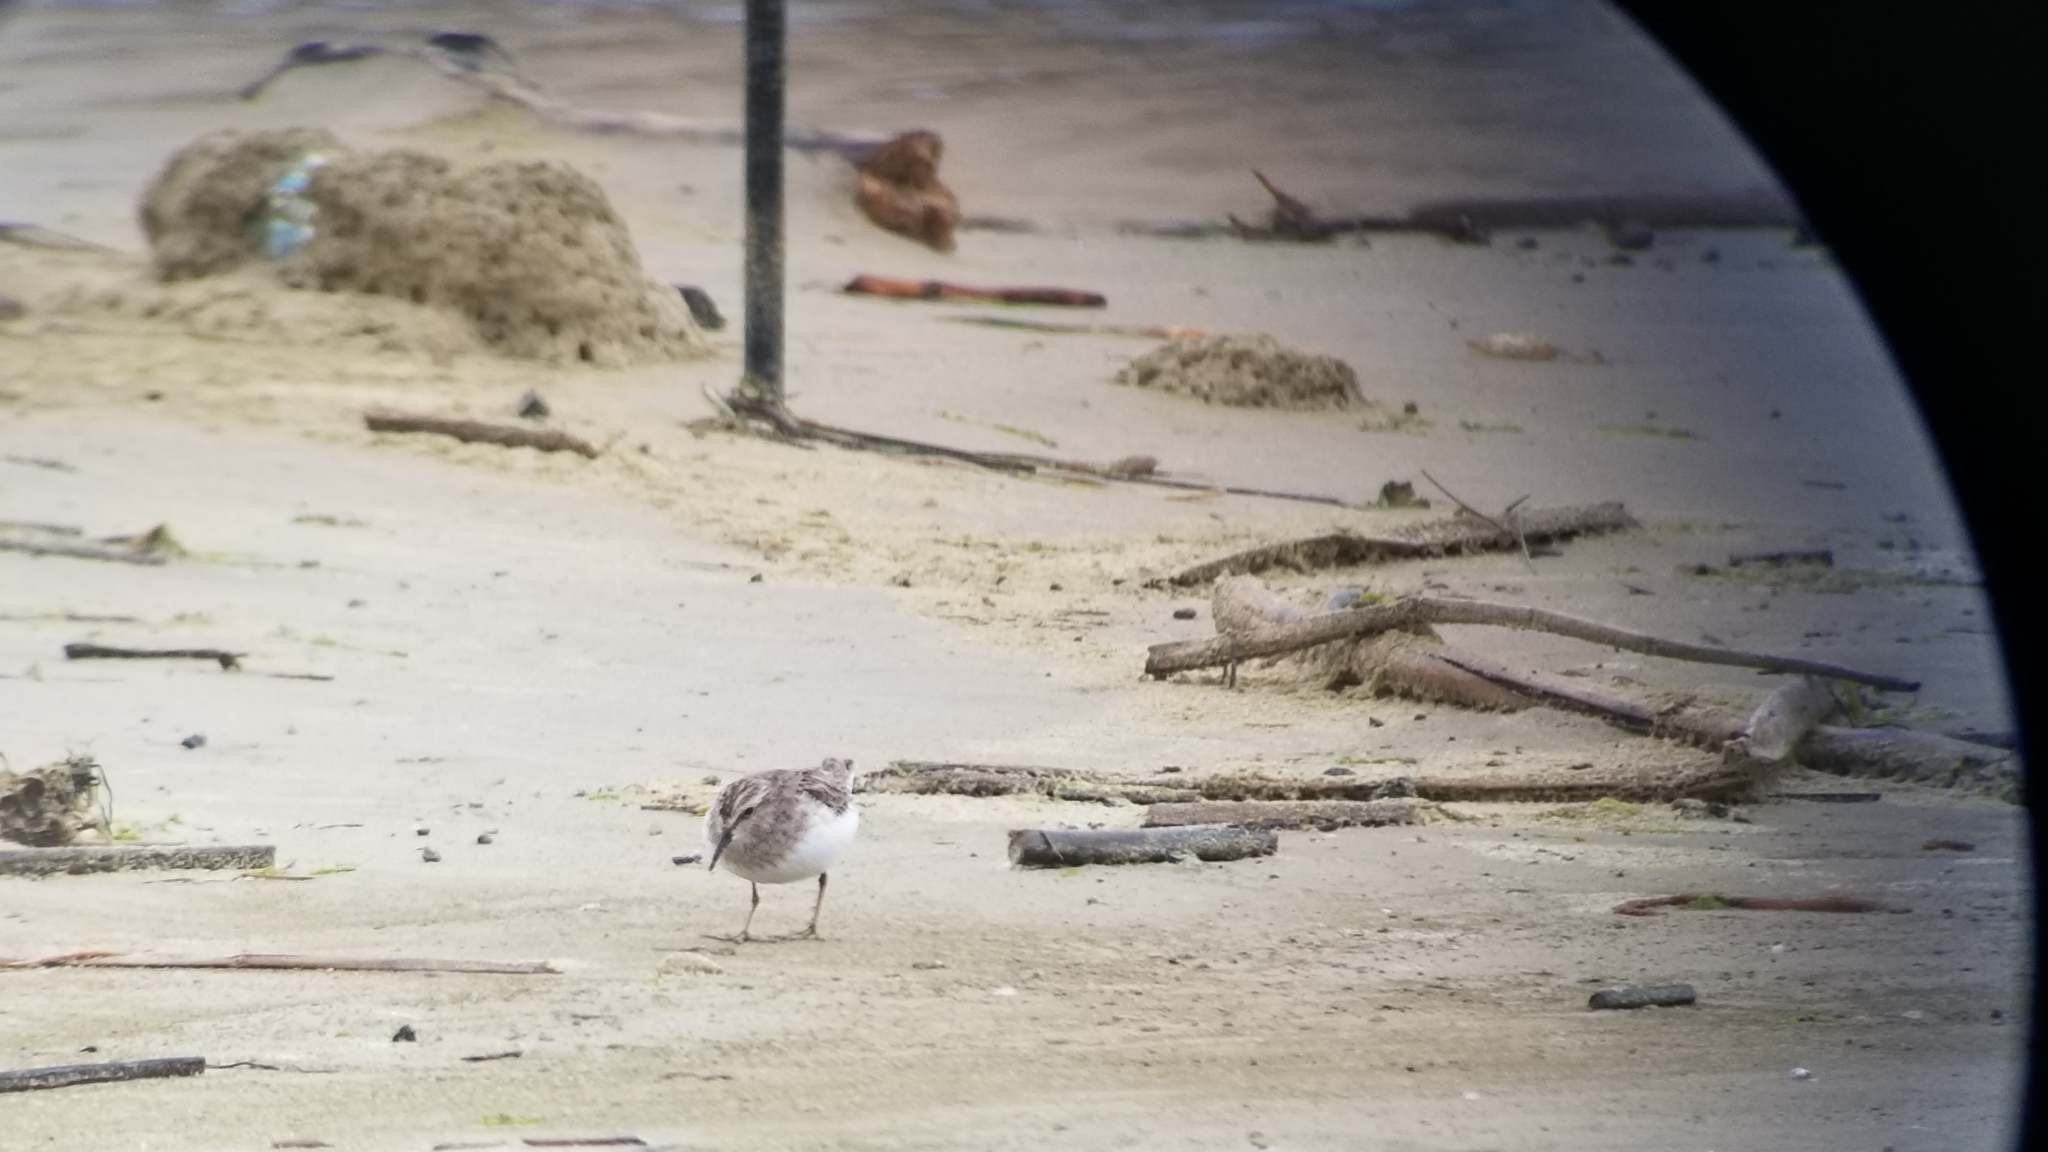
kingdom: Animalia
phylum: Chordata
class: Aves
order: Charadriiformes
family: Scolopacidae
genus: Calidris
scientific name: Calidris minutilla
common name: Least sandpiper
